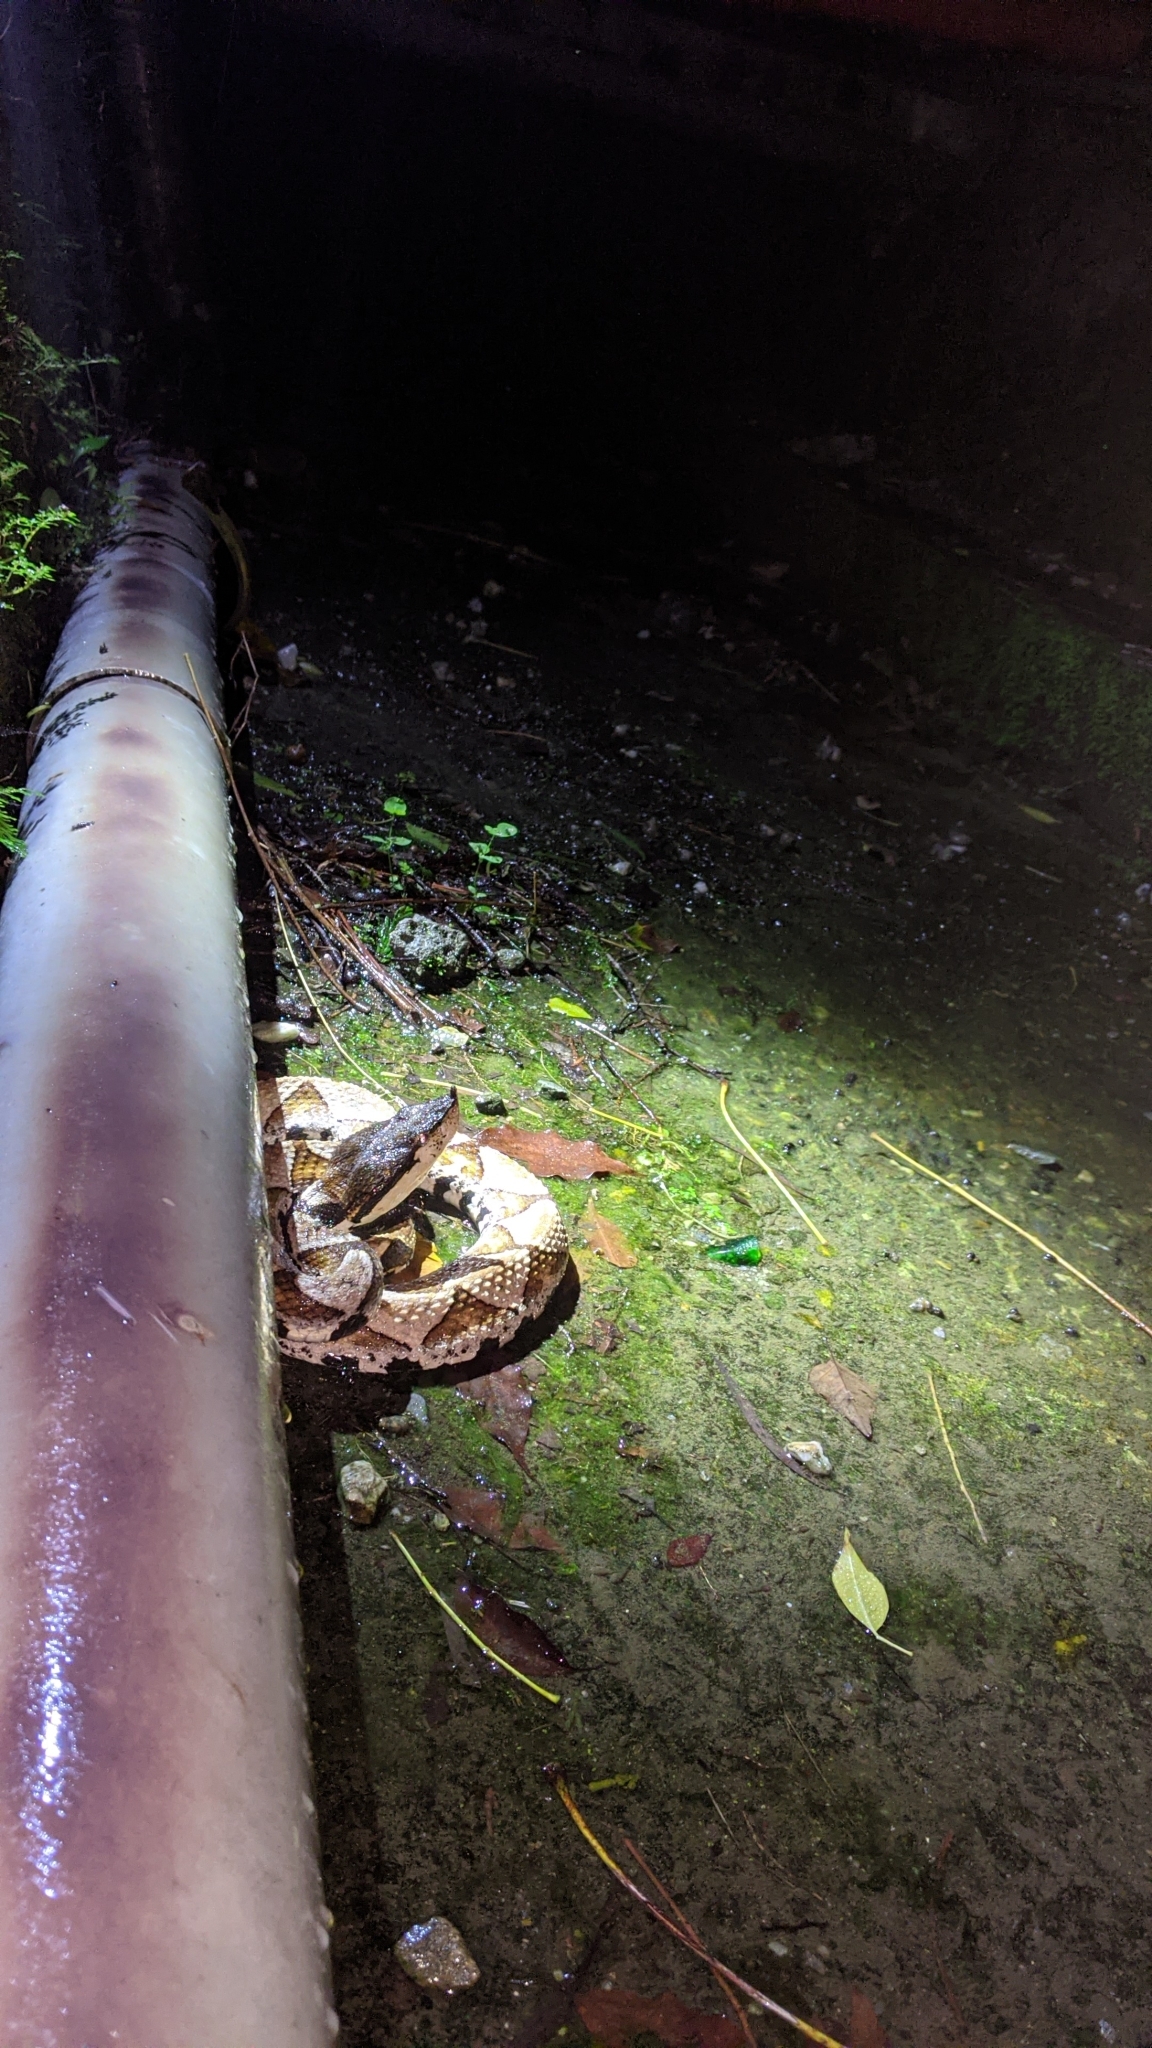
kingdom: Animalia
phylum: Chordata
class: Squamata
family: Viperidae
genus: Deinagkistrodon
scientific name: Deinagkistrodon acutus
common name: Chinese moccasin
